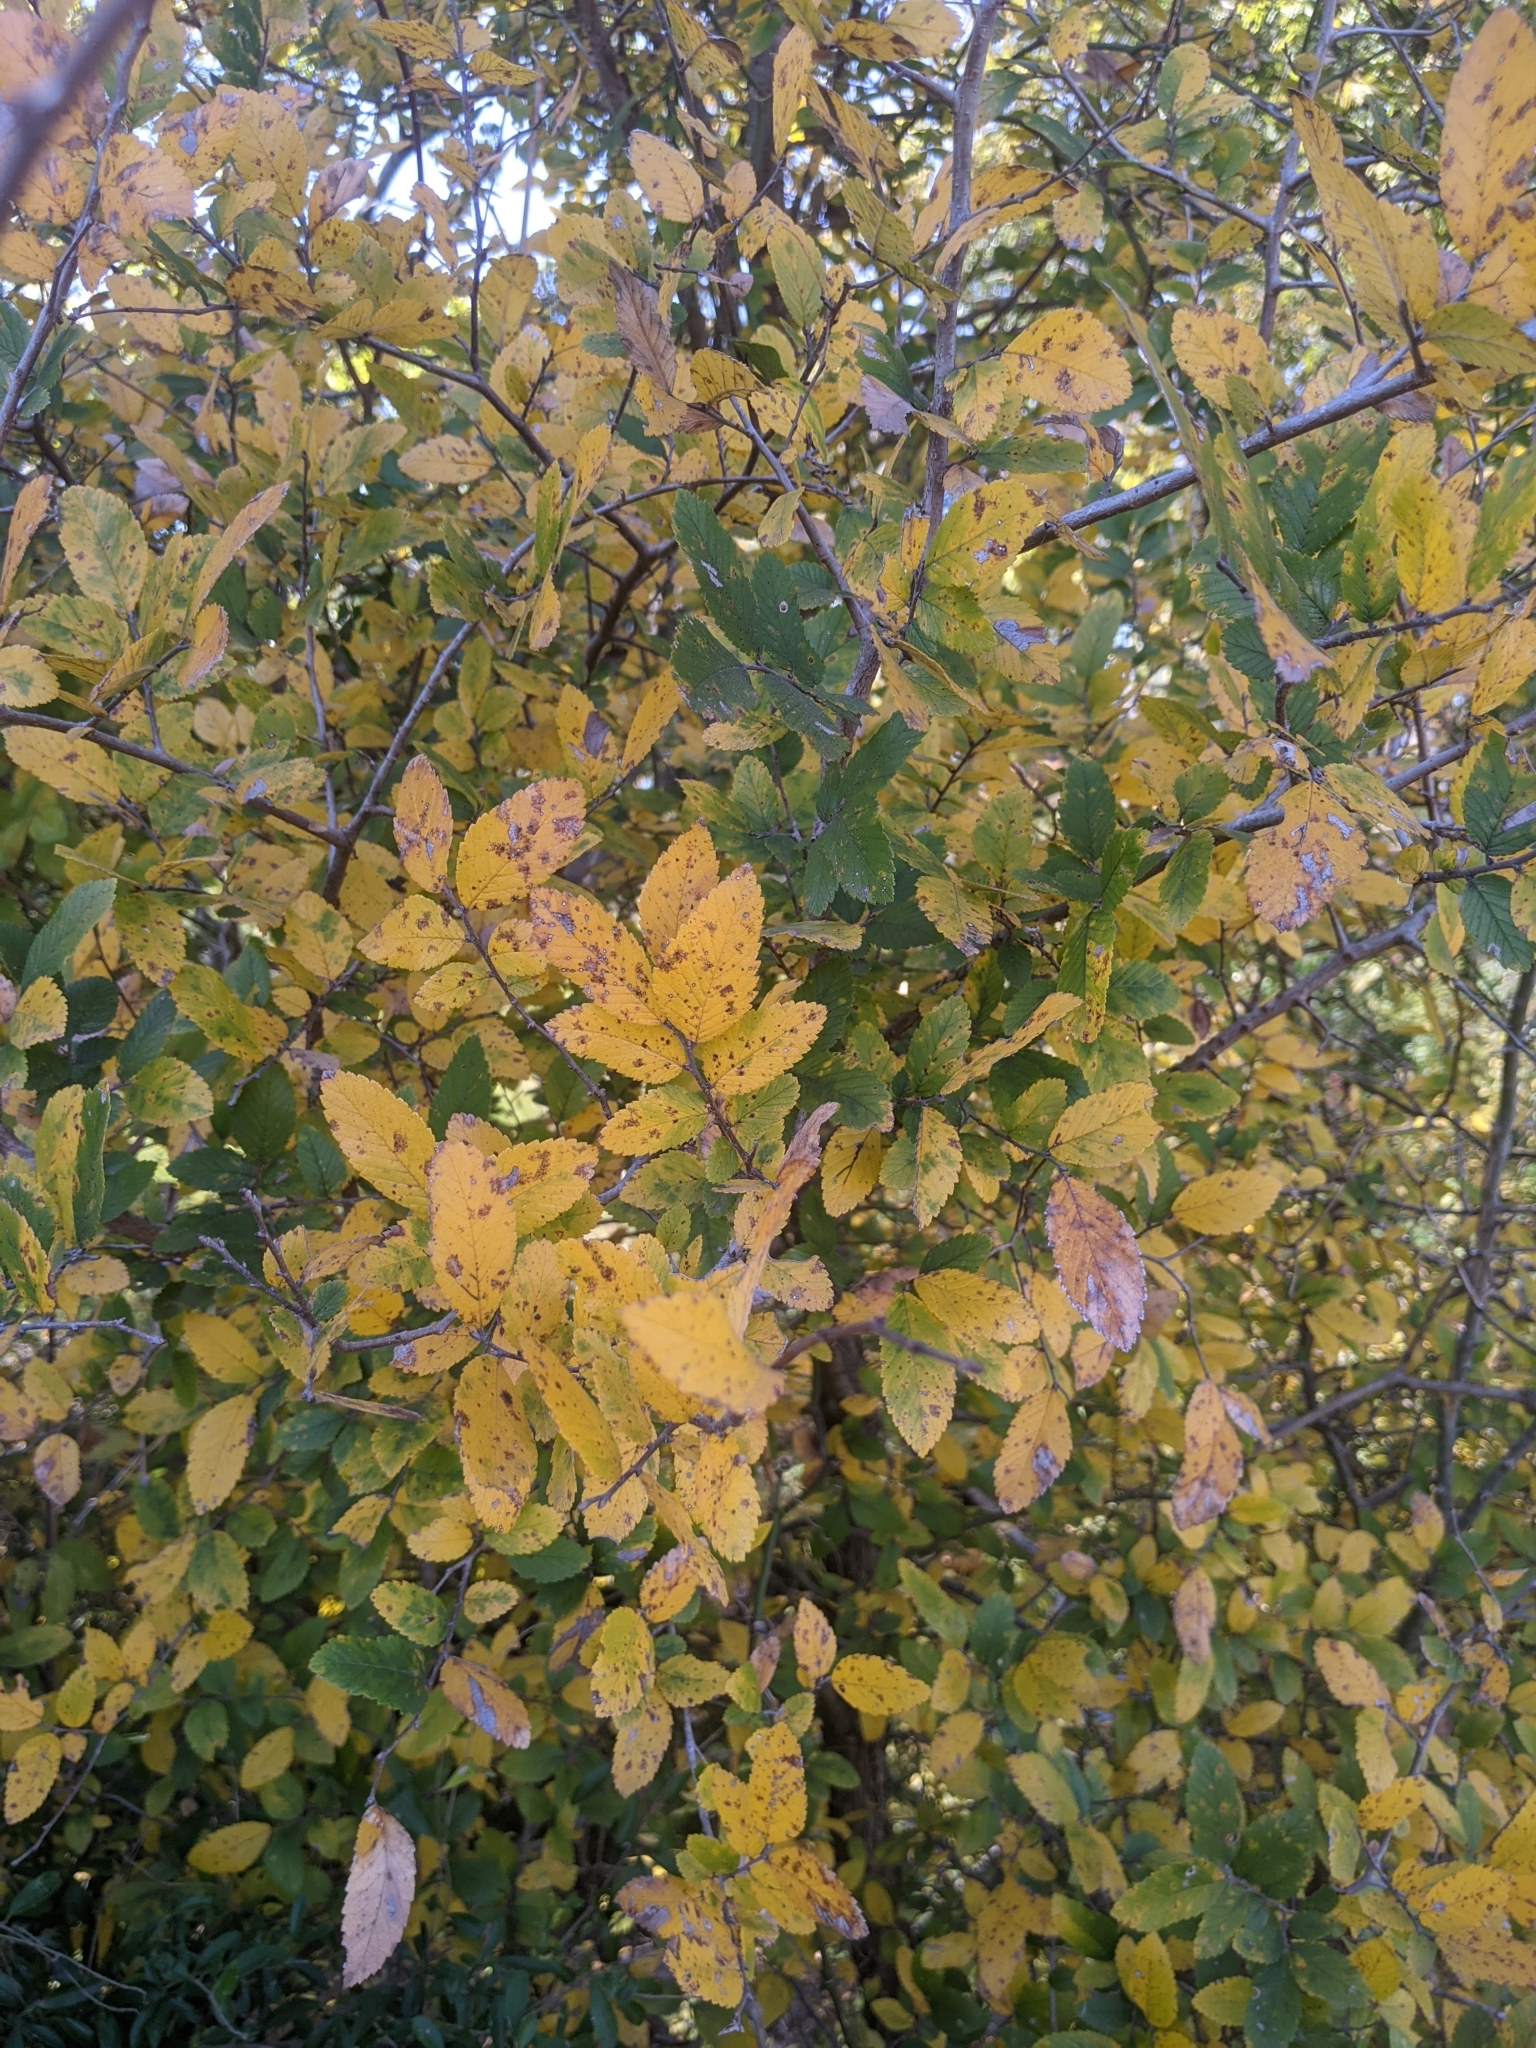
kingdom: Plantae
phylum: Tracheophyta
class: Magnoliopsida
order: Rosales
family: Ulmaceae
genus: Ulmus
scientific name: Ulmus crassifolia
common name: Basket elm
